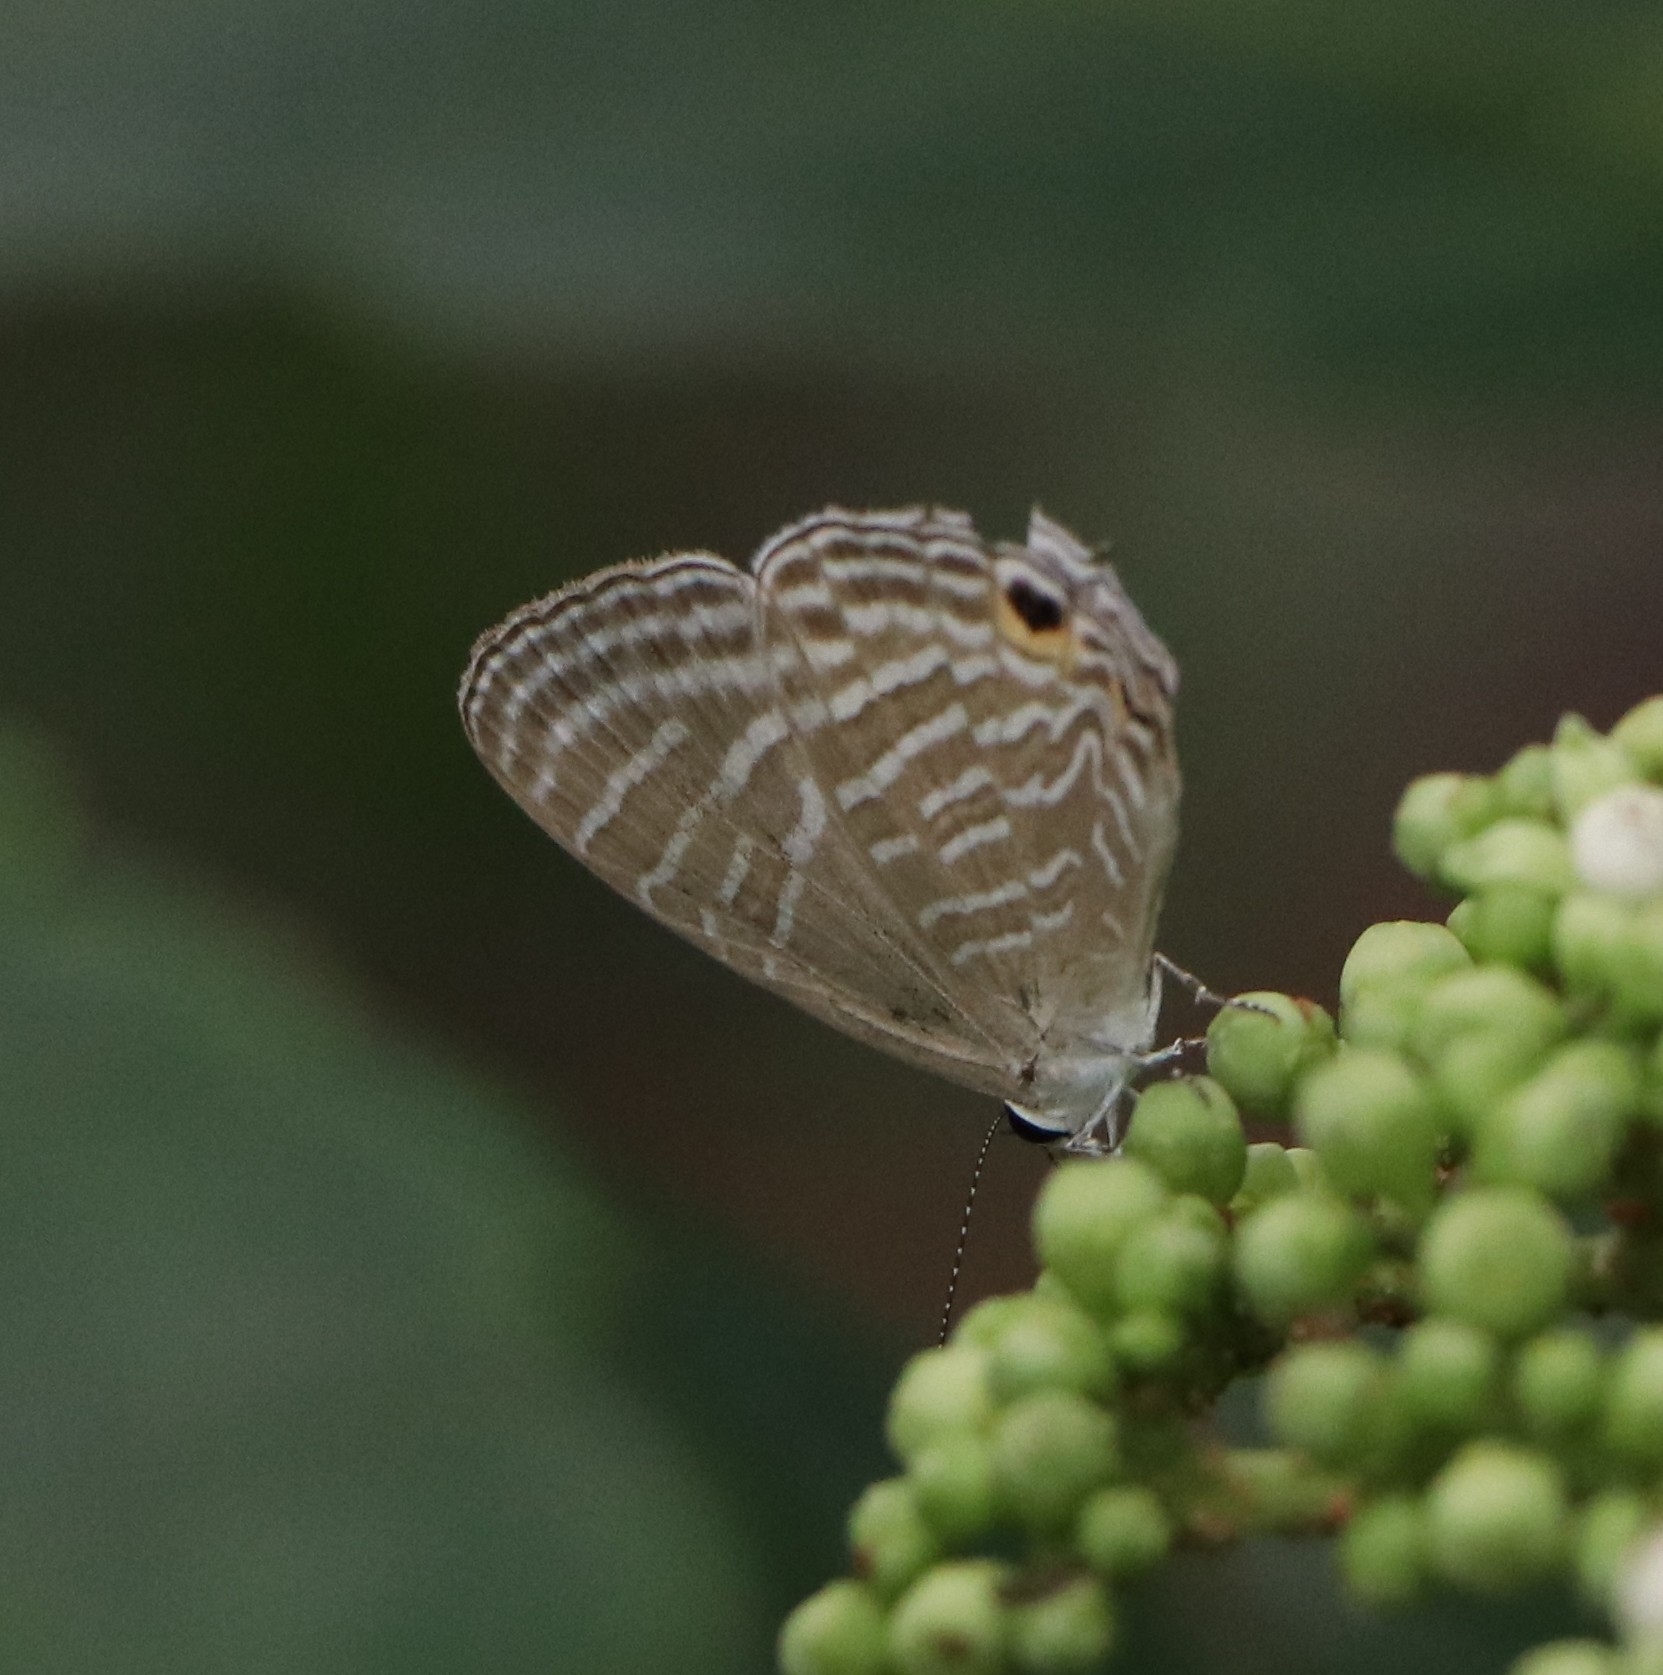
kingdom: Animalia
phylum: Arthropoda
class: Insecta
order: Lepidoptera
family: Lycaenidae
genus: Jamides
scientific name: Jamides celeno
